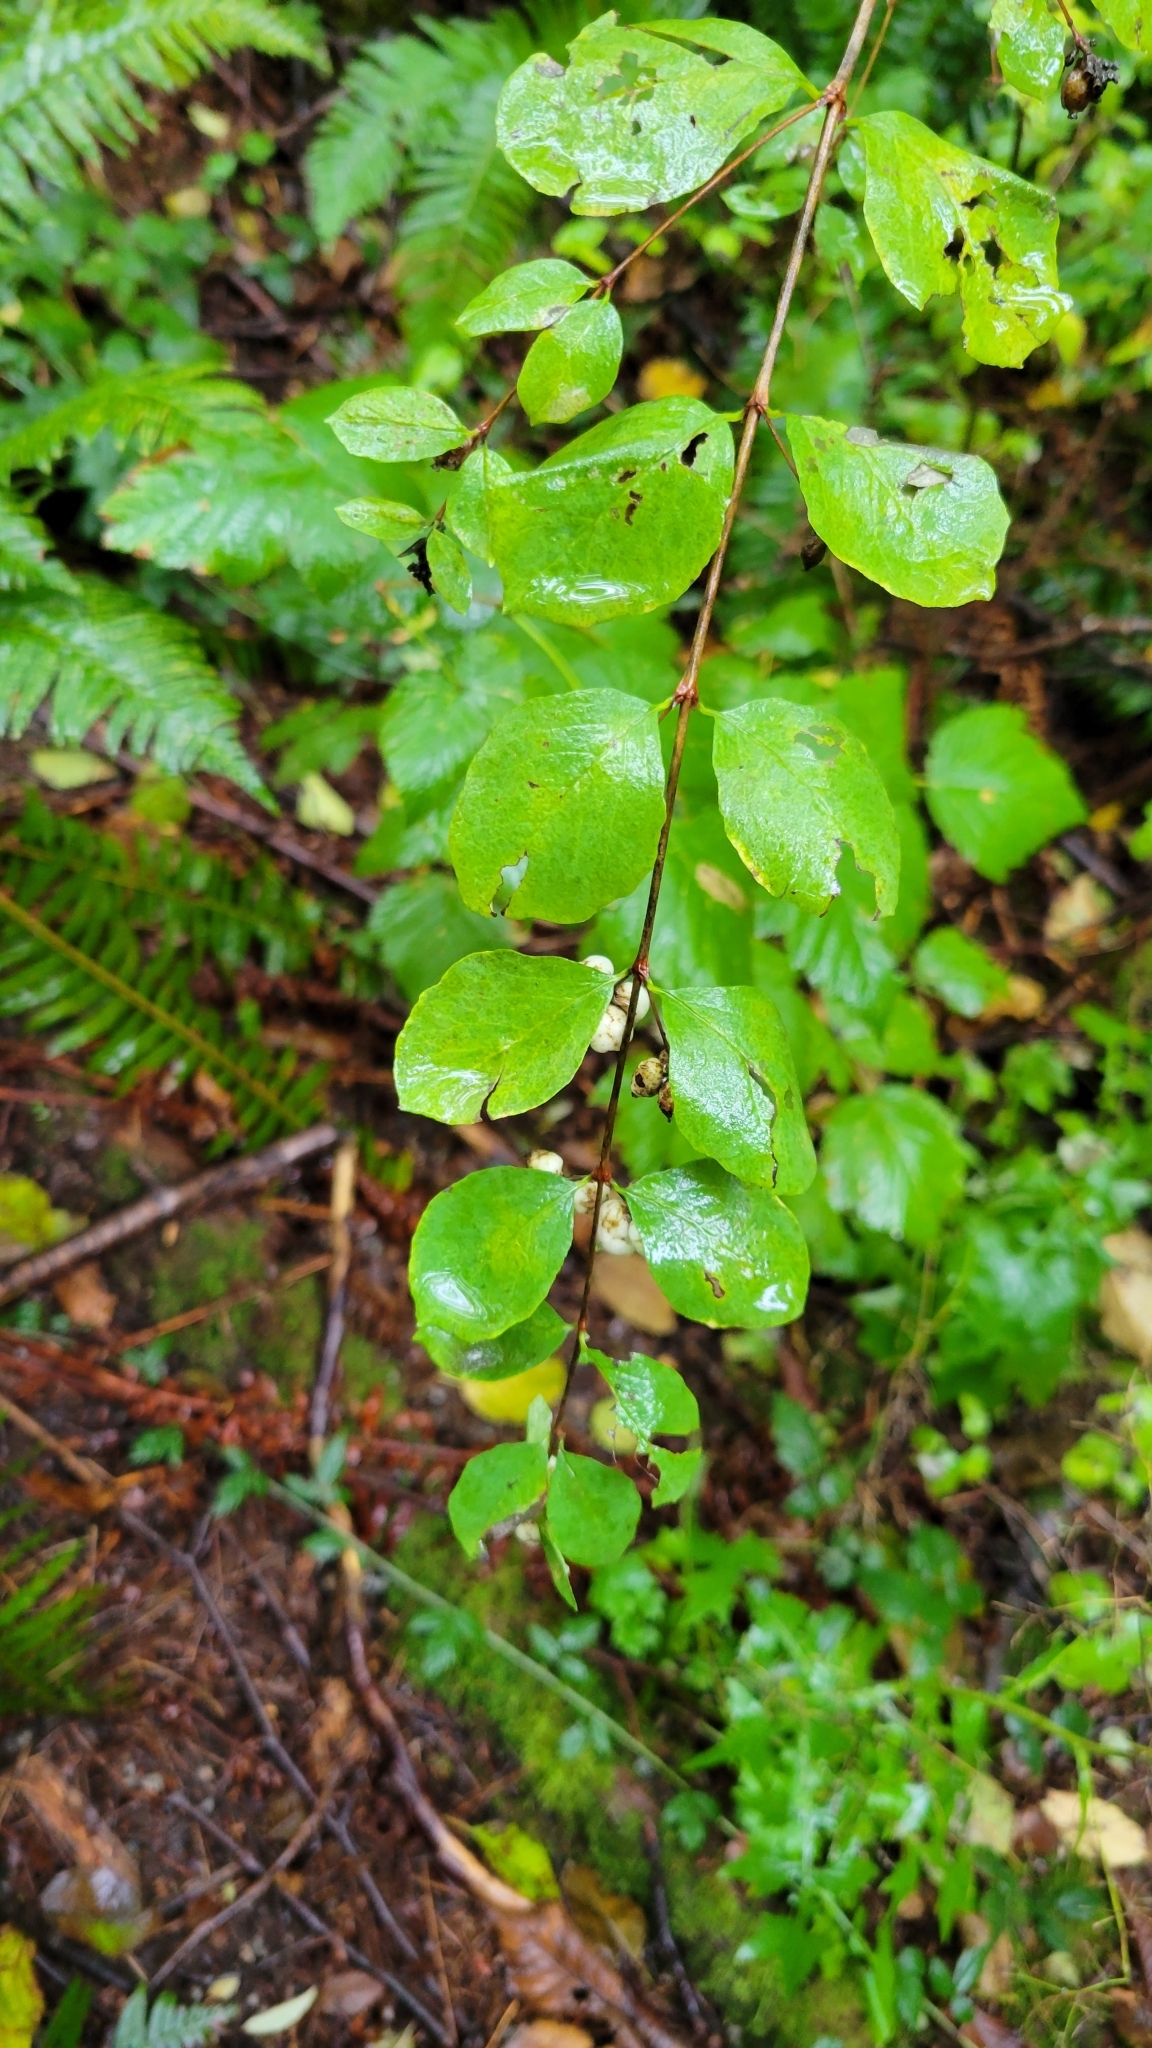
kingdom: Plantae
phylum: Tracheophyta
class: Magnoliopsida
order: Dipsacales
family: Caprifoliaceae
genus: Symphoricarpos
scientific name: Symphoricarpos albus
